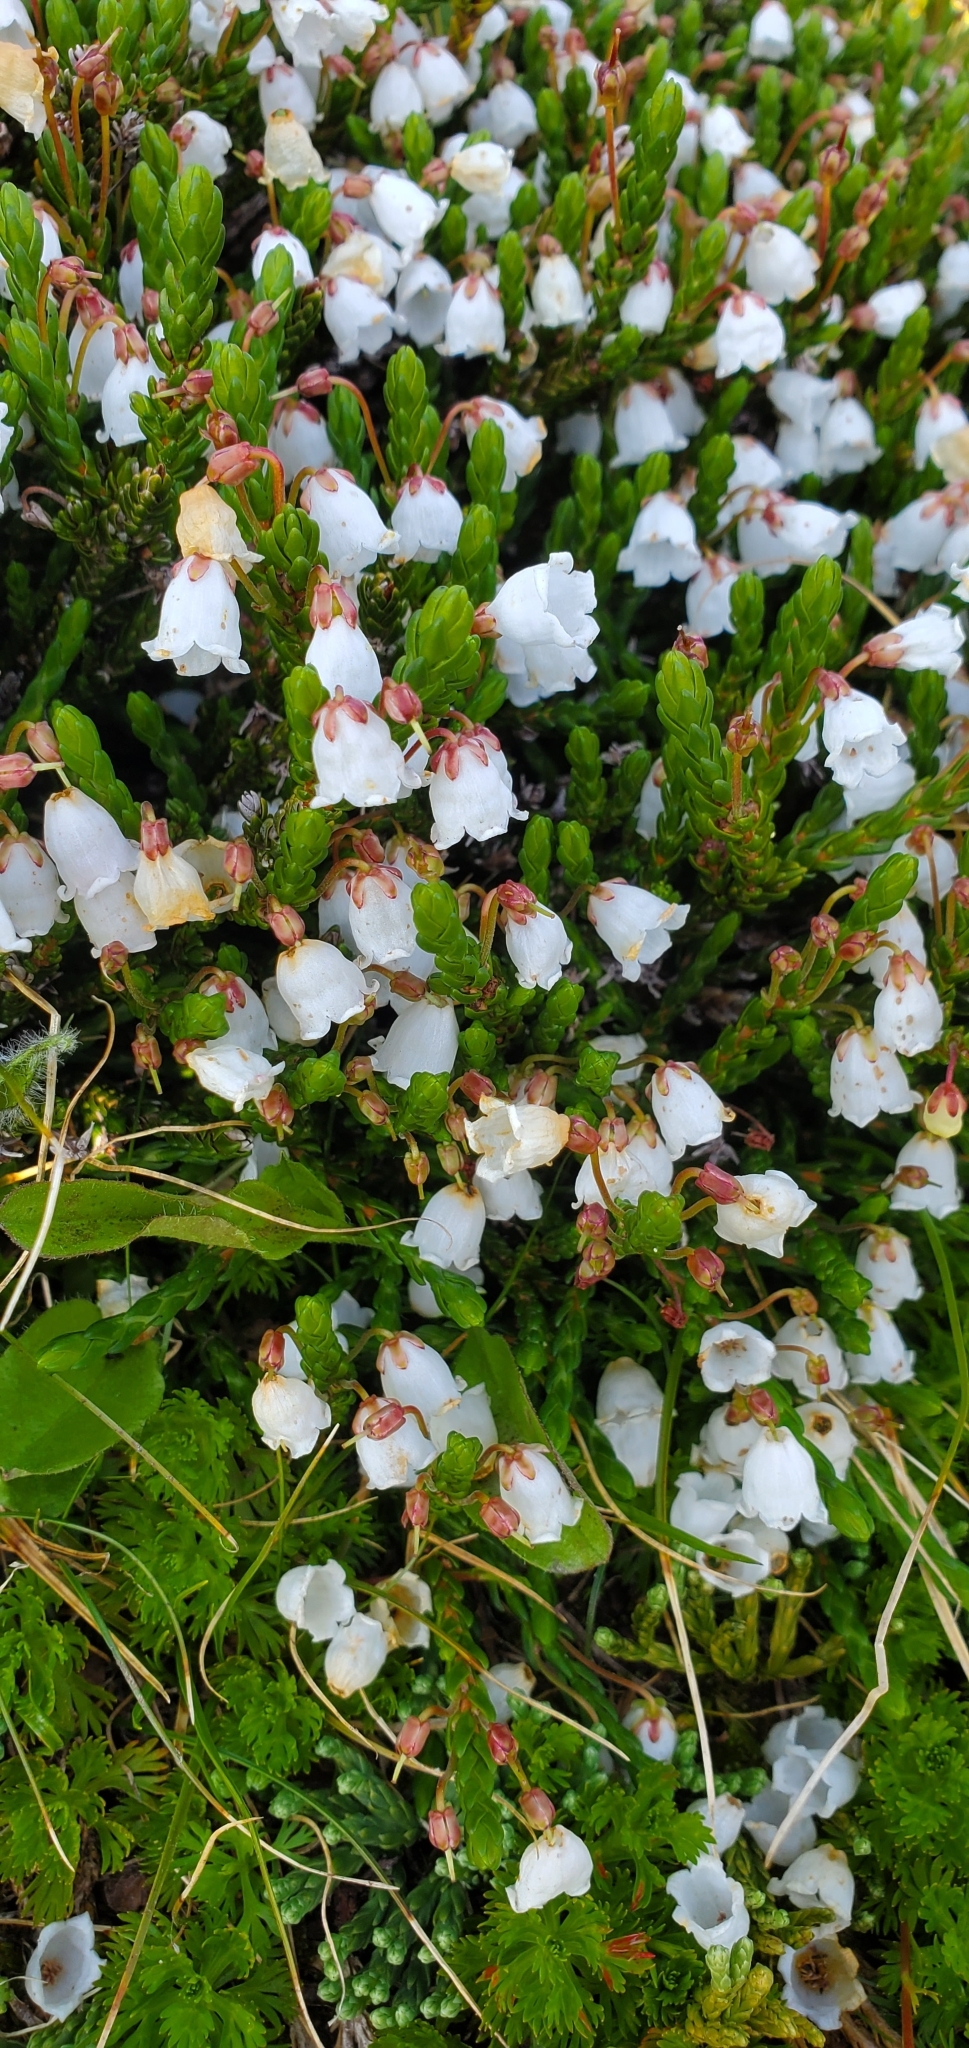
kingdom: Plantae
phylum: Tracheophyta
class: Magnoliopsida
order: Ericales
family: Ericaceae
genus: Cassiope
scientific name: Cassiope mertensiana
